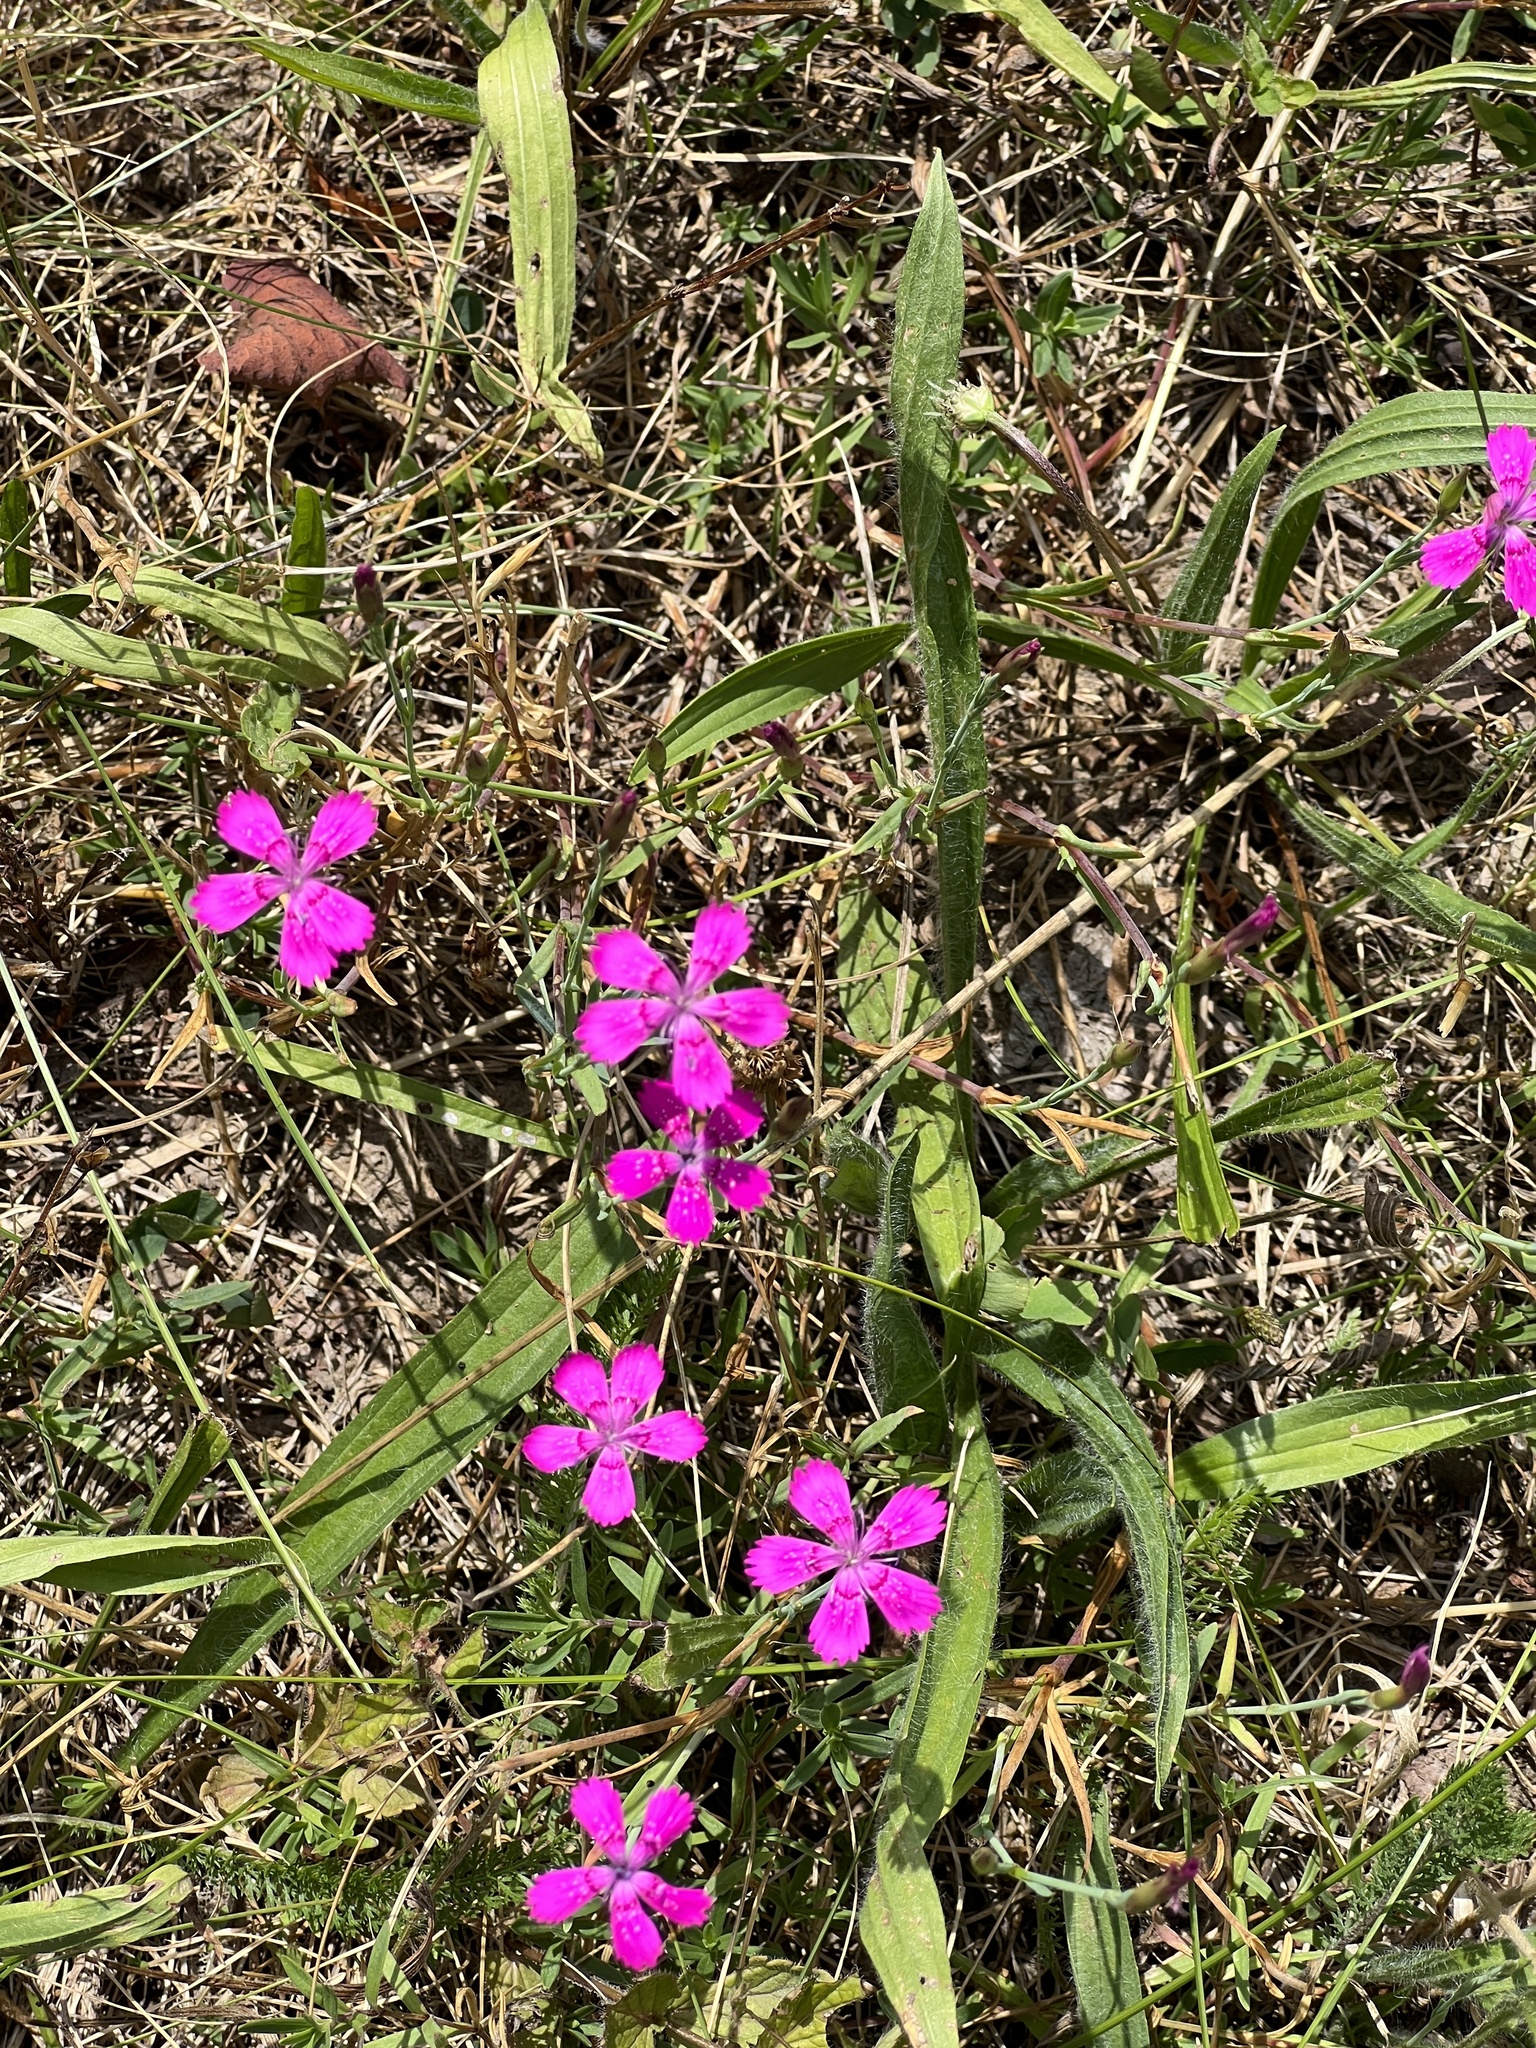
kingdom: Plantae
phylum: Tracheophyta
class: Magnoliopsida
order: Caryophyllales
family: Caryophyllaceae
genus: Dianthus
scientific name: Dianthus deltoides
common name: Maiden pink
